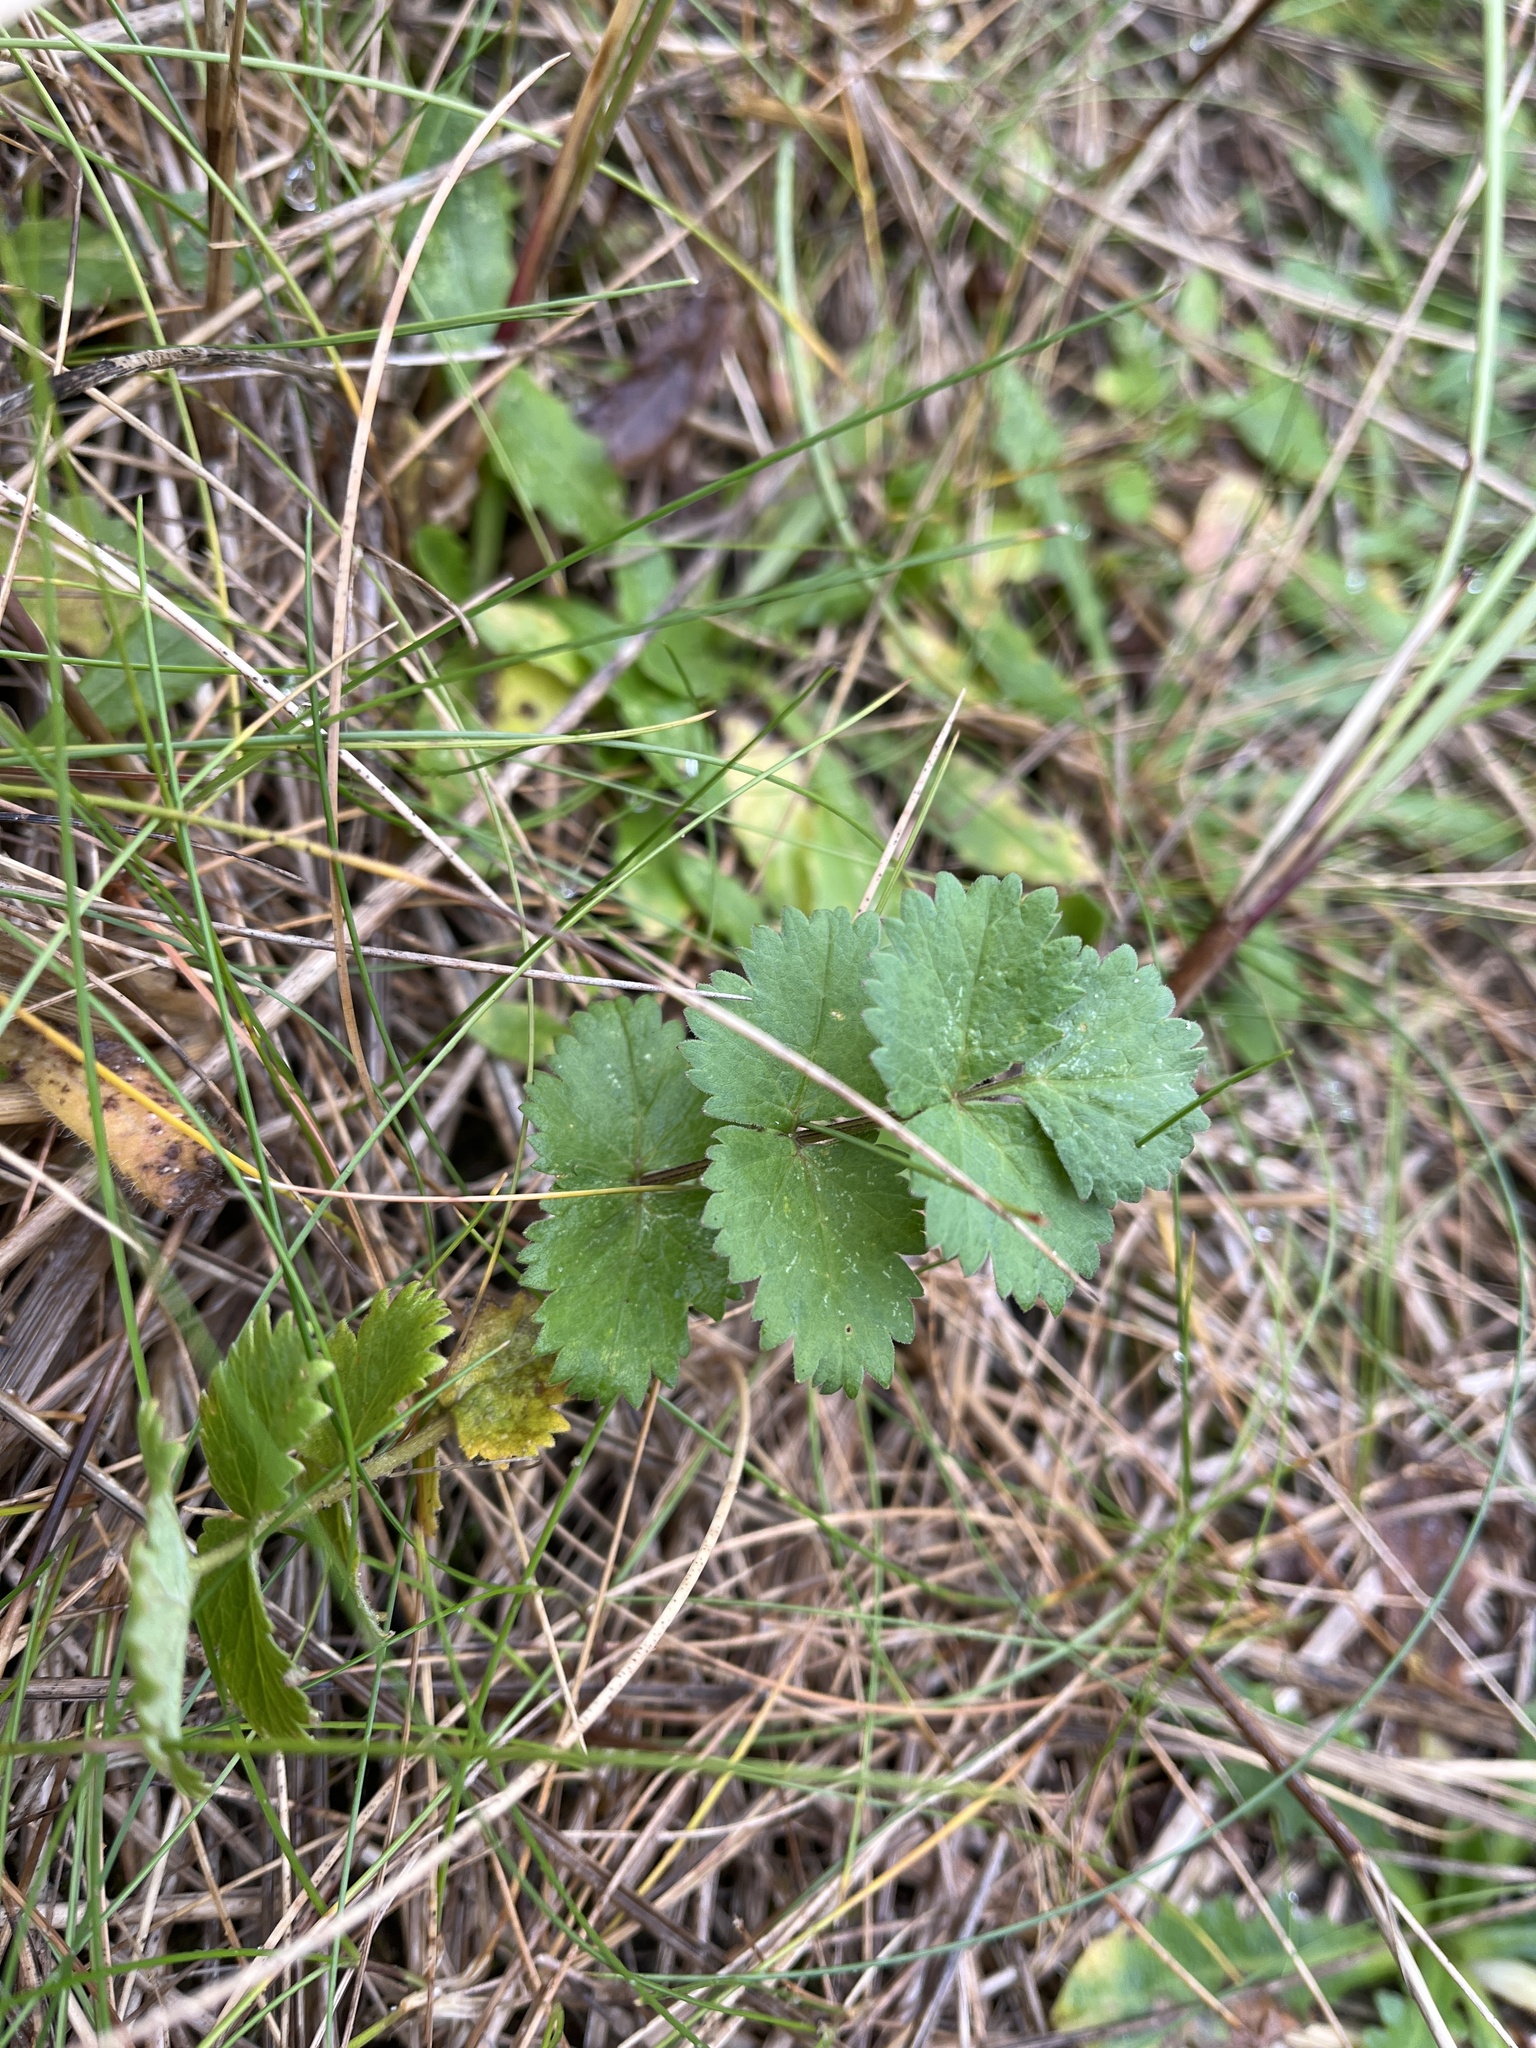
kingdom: Plantae
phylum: Tracheophyta
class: Magnoliopsida
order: Apiales
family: Apiaceae
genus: Pimpinella
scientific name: Pimpinella saxifraga
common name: Burnet-saxifrage
